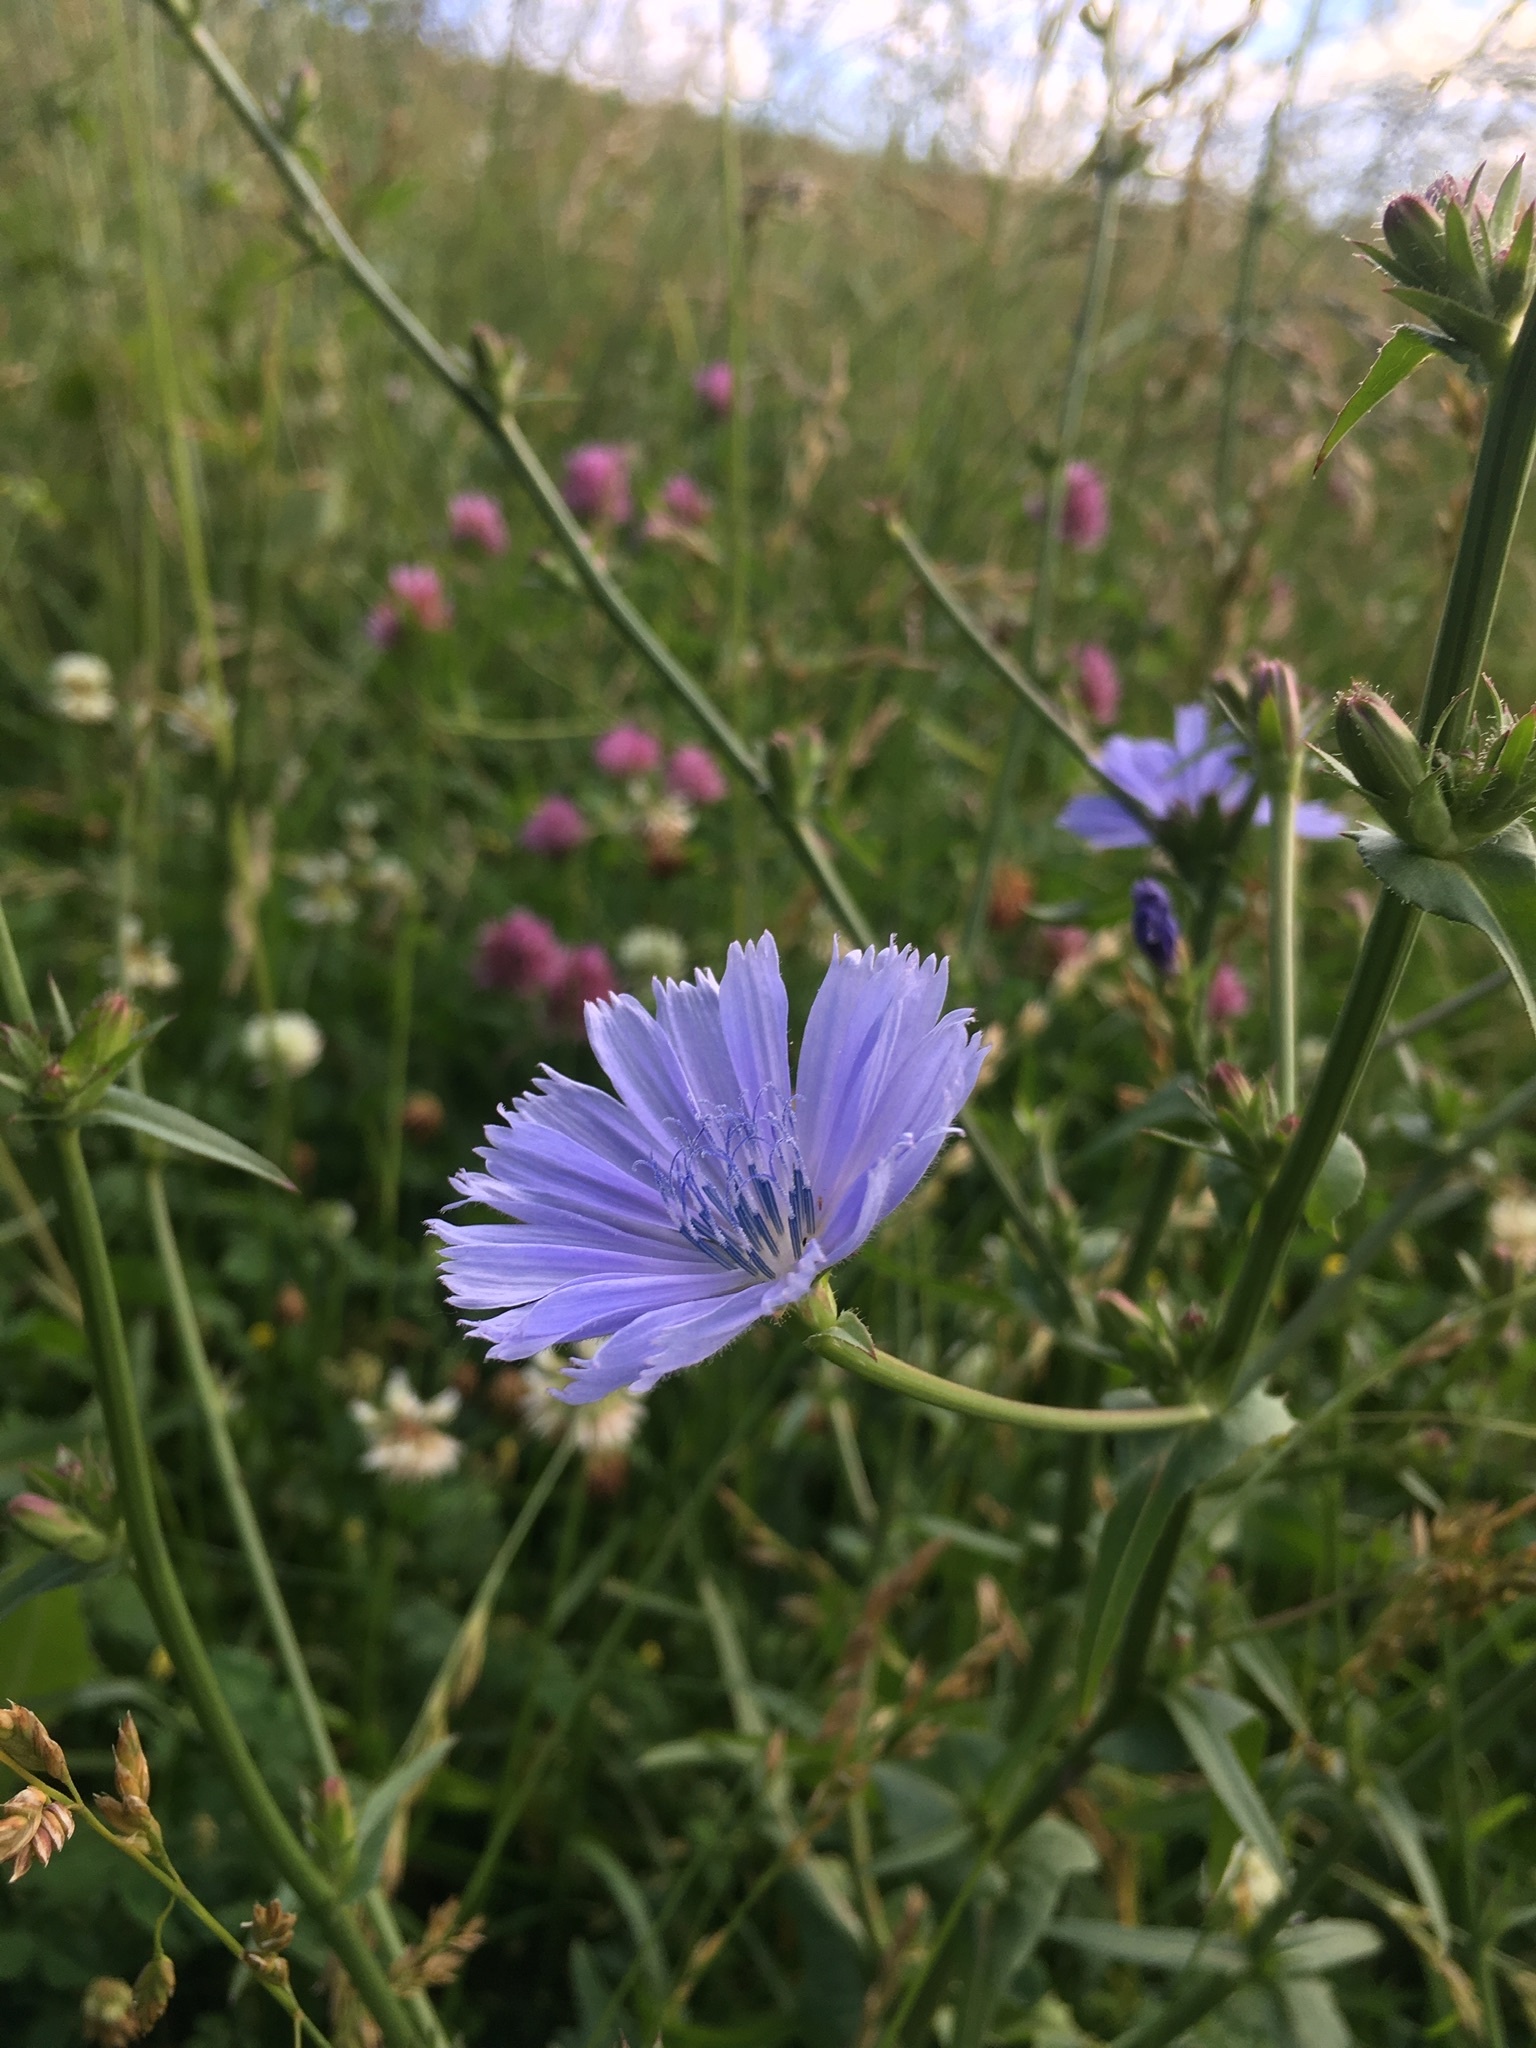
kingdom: Plantae
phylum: Tracheophyta
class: Magnoliopsida
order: Asterales
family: Asteraceae
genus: Cichorium
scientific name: Cichorium intybus
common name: Chicory
